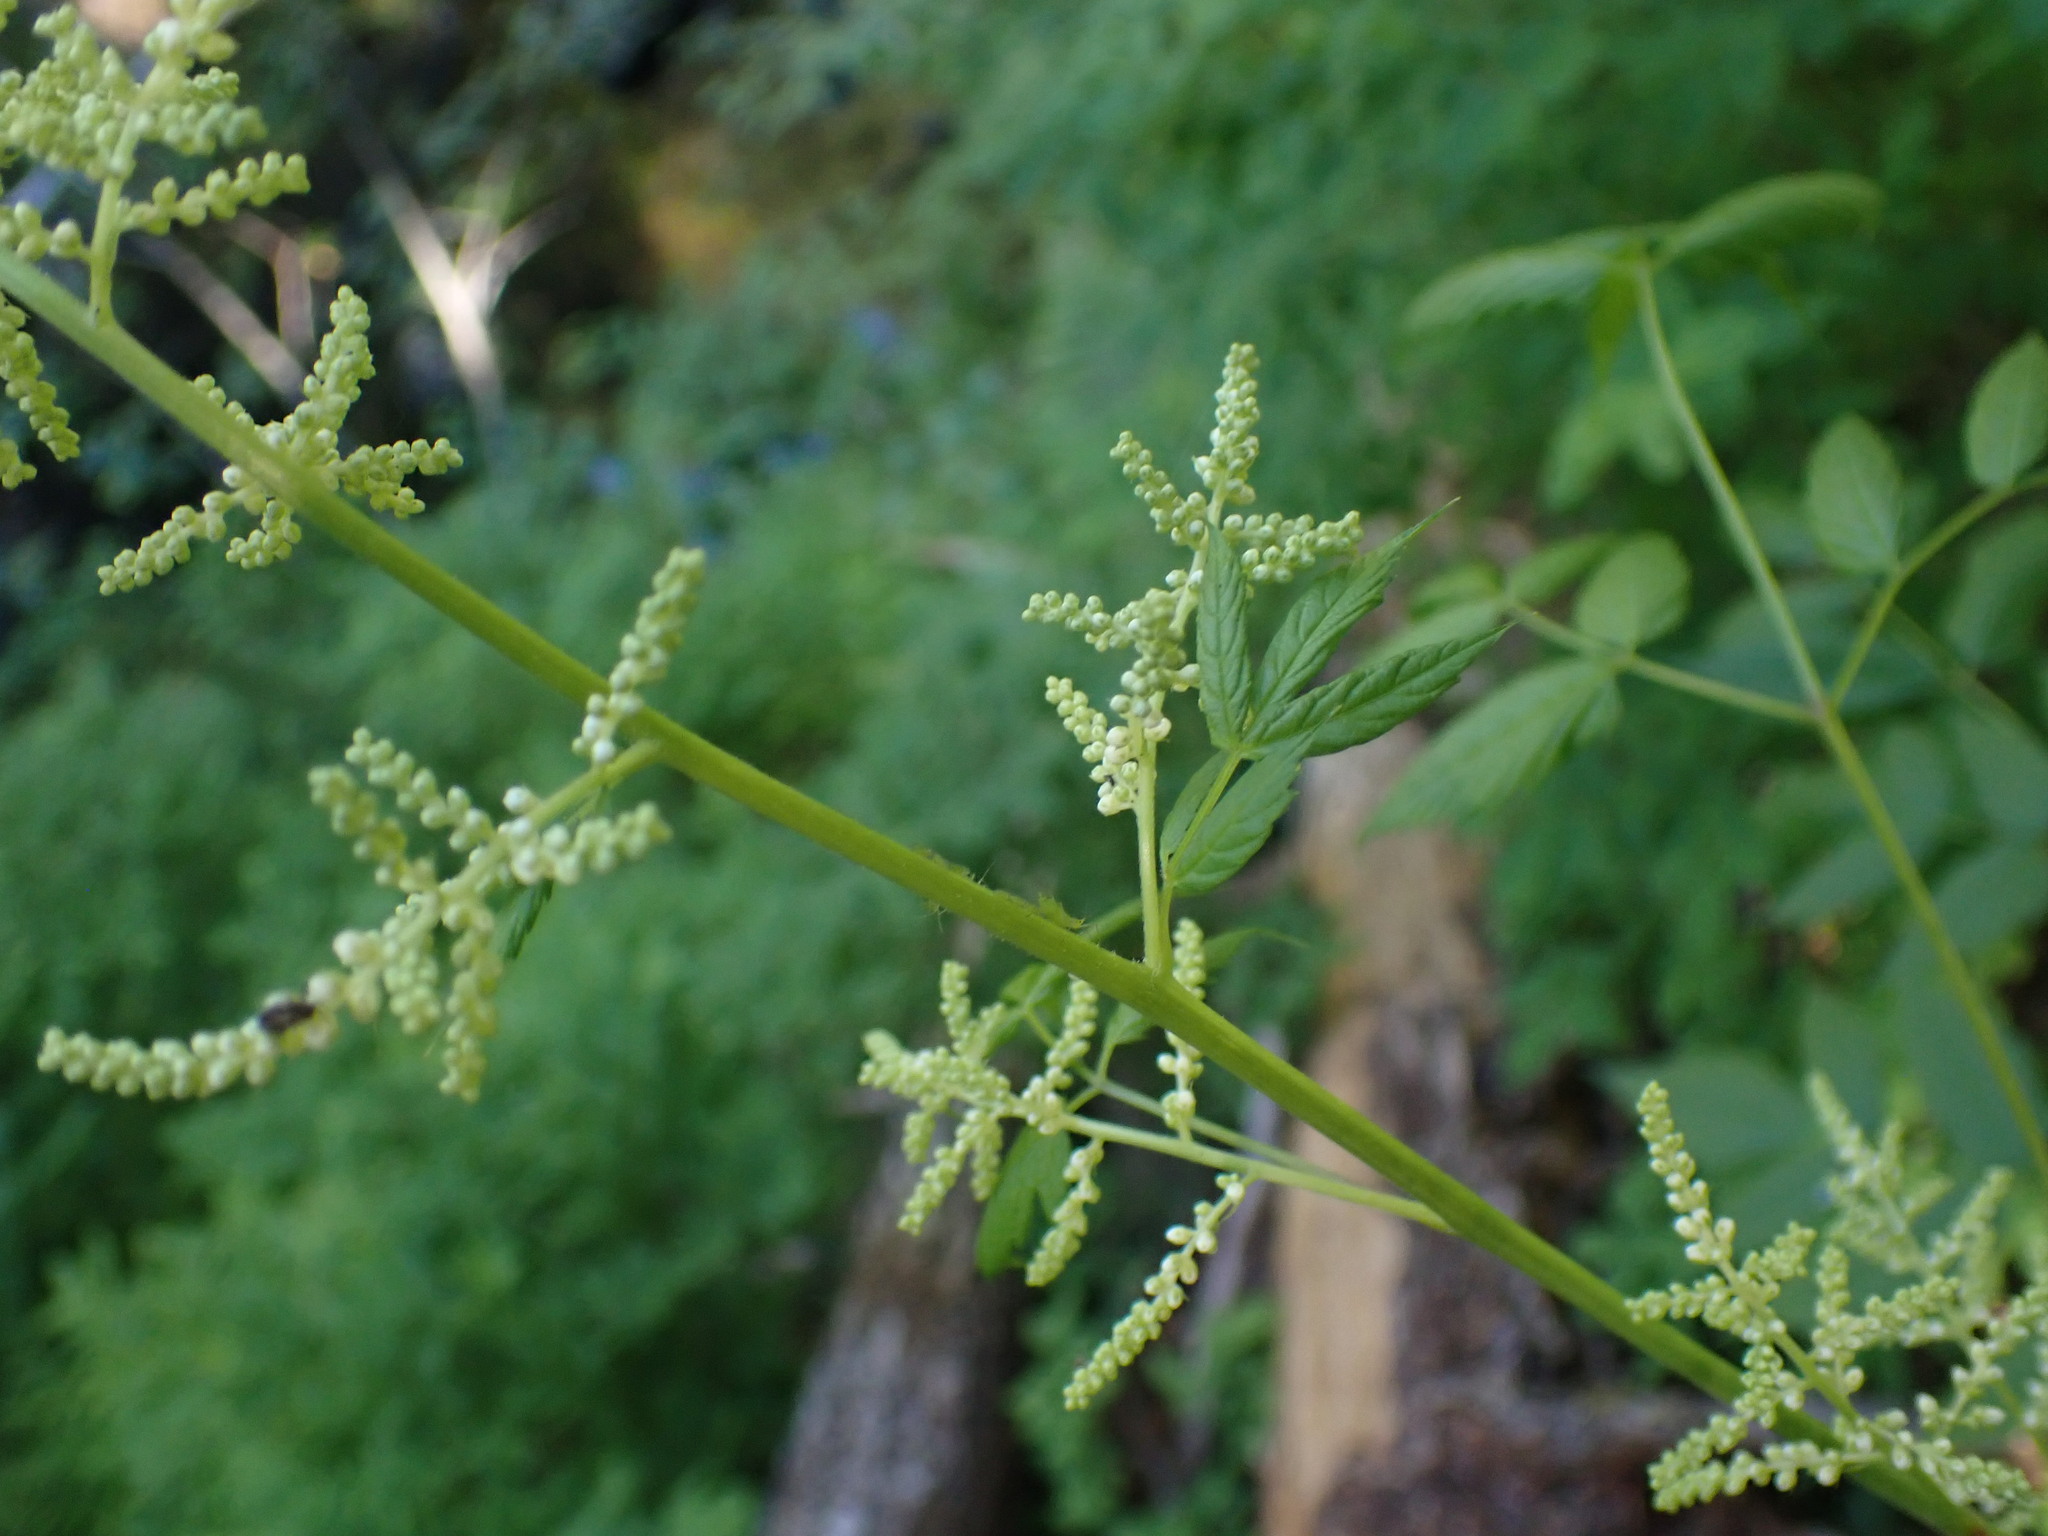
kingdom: Plantae
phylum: Tracheophyta
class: Magnoliopsida
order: Rosales
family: Rosaceae
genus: Aruncus
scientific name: Aruncus dioicus
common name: Buck's-beard
